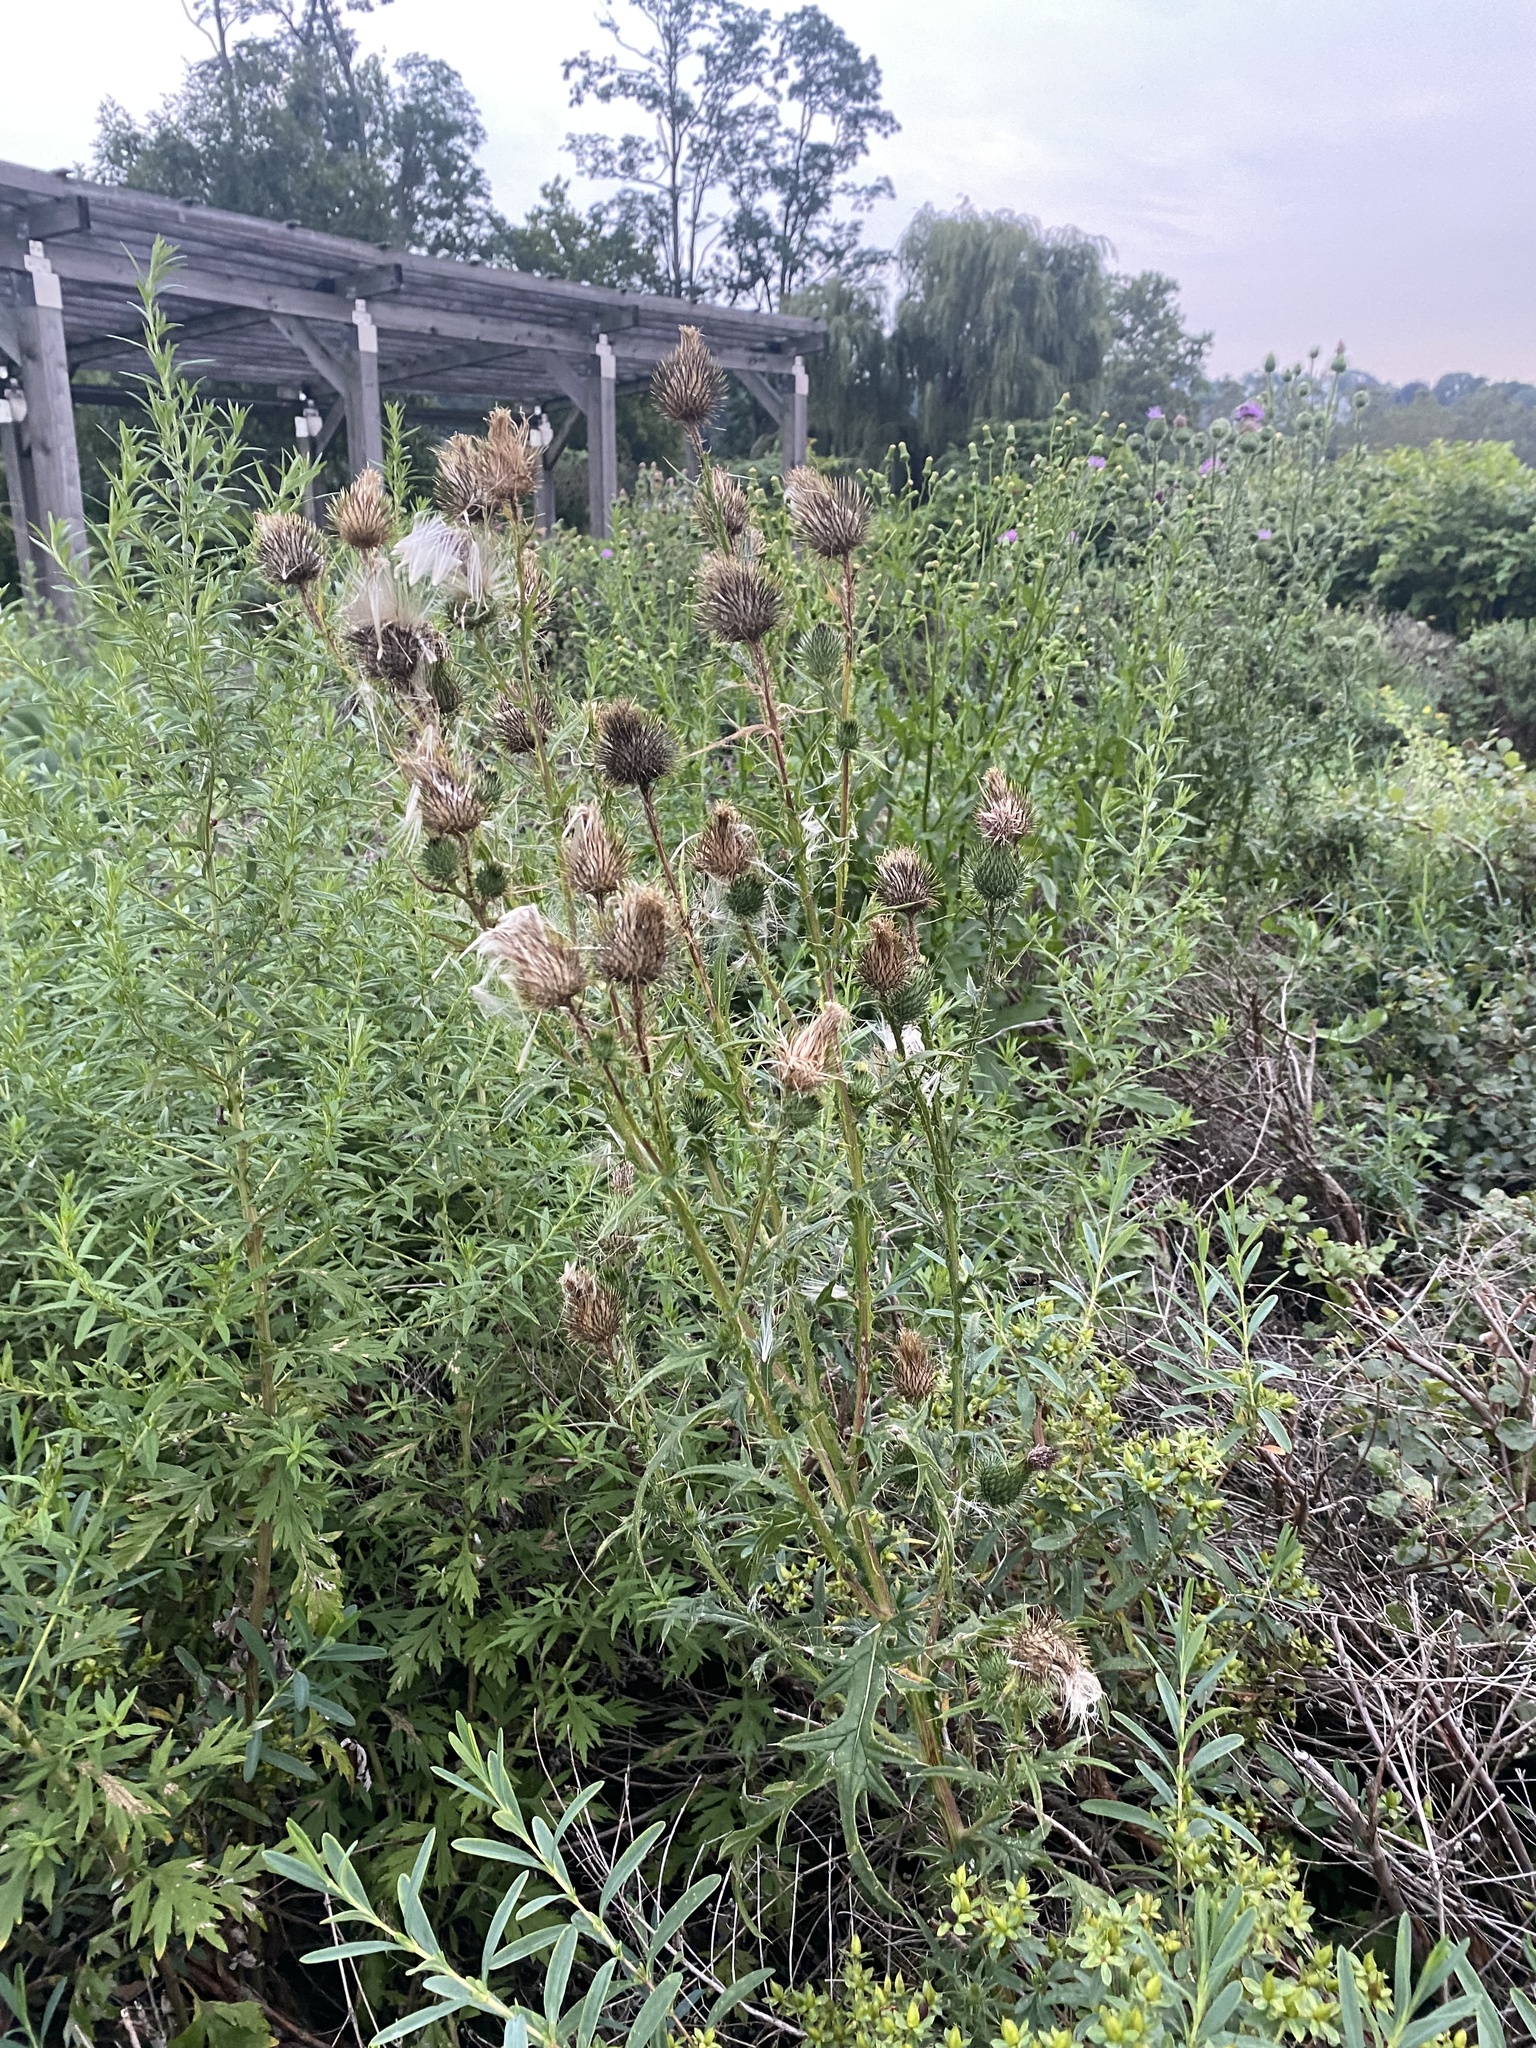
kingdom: Plantae
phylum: Tracheophyta
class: Magnoliopsida
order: Asterales
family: Asteraceae
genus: Cirsium
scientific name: Cirsium vulgare
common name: Bull thistle
